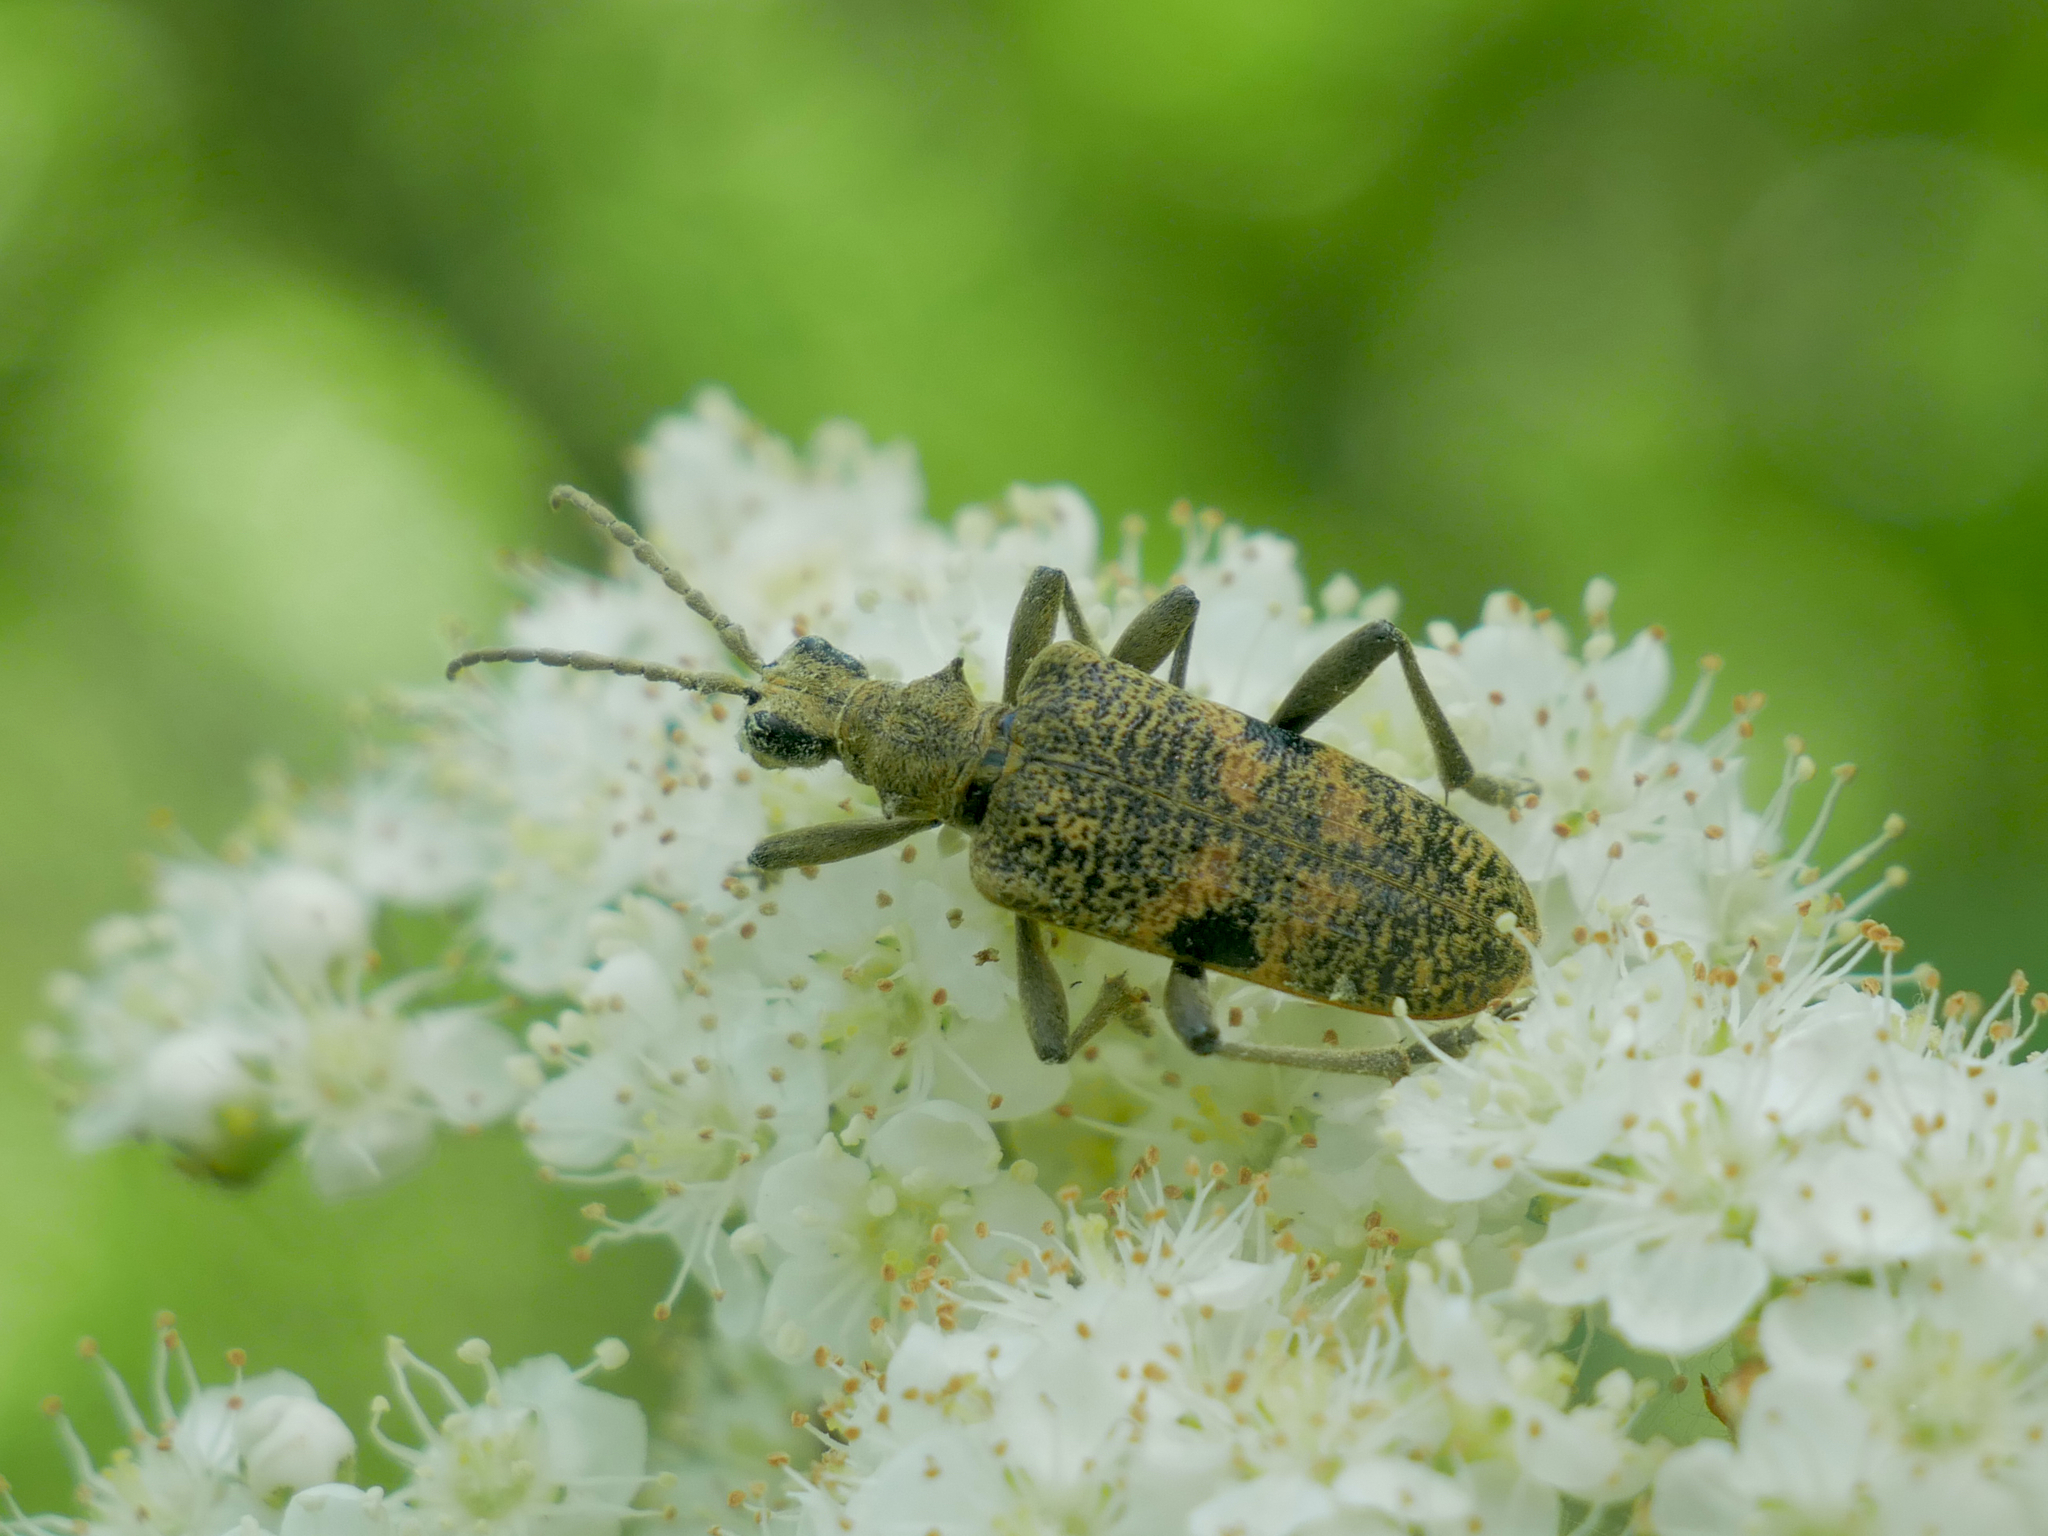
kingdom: Animalia
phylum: Arthropoda
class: Insecta
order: Coleoptera
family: Cerambycidae
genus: Rhagium
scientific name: Rhagium mordax
